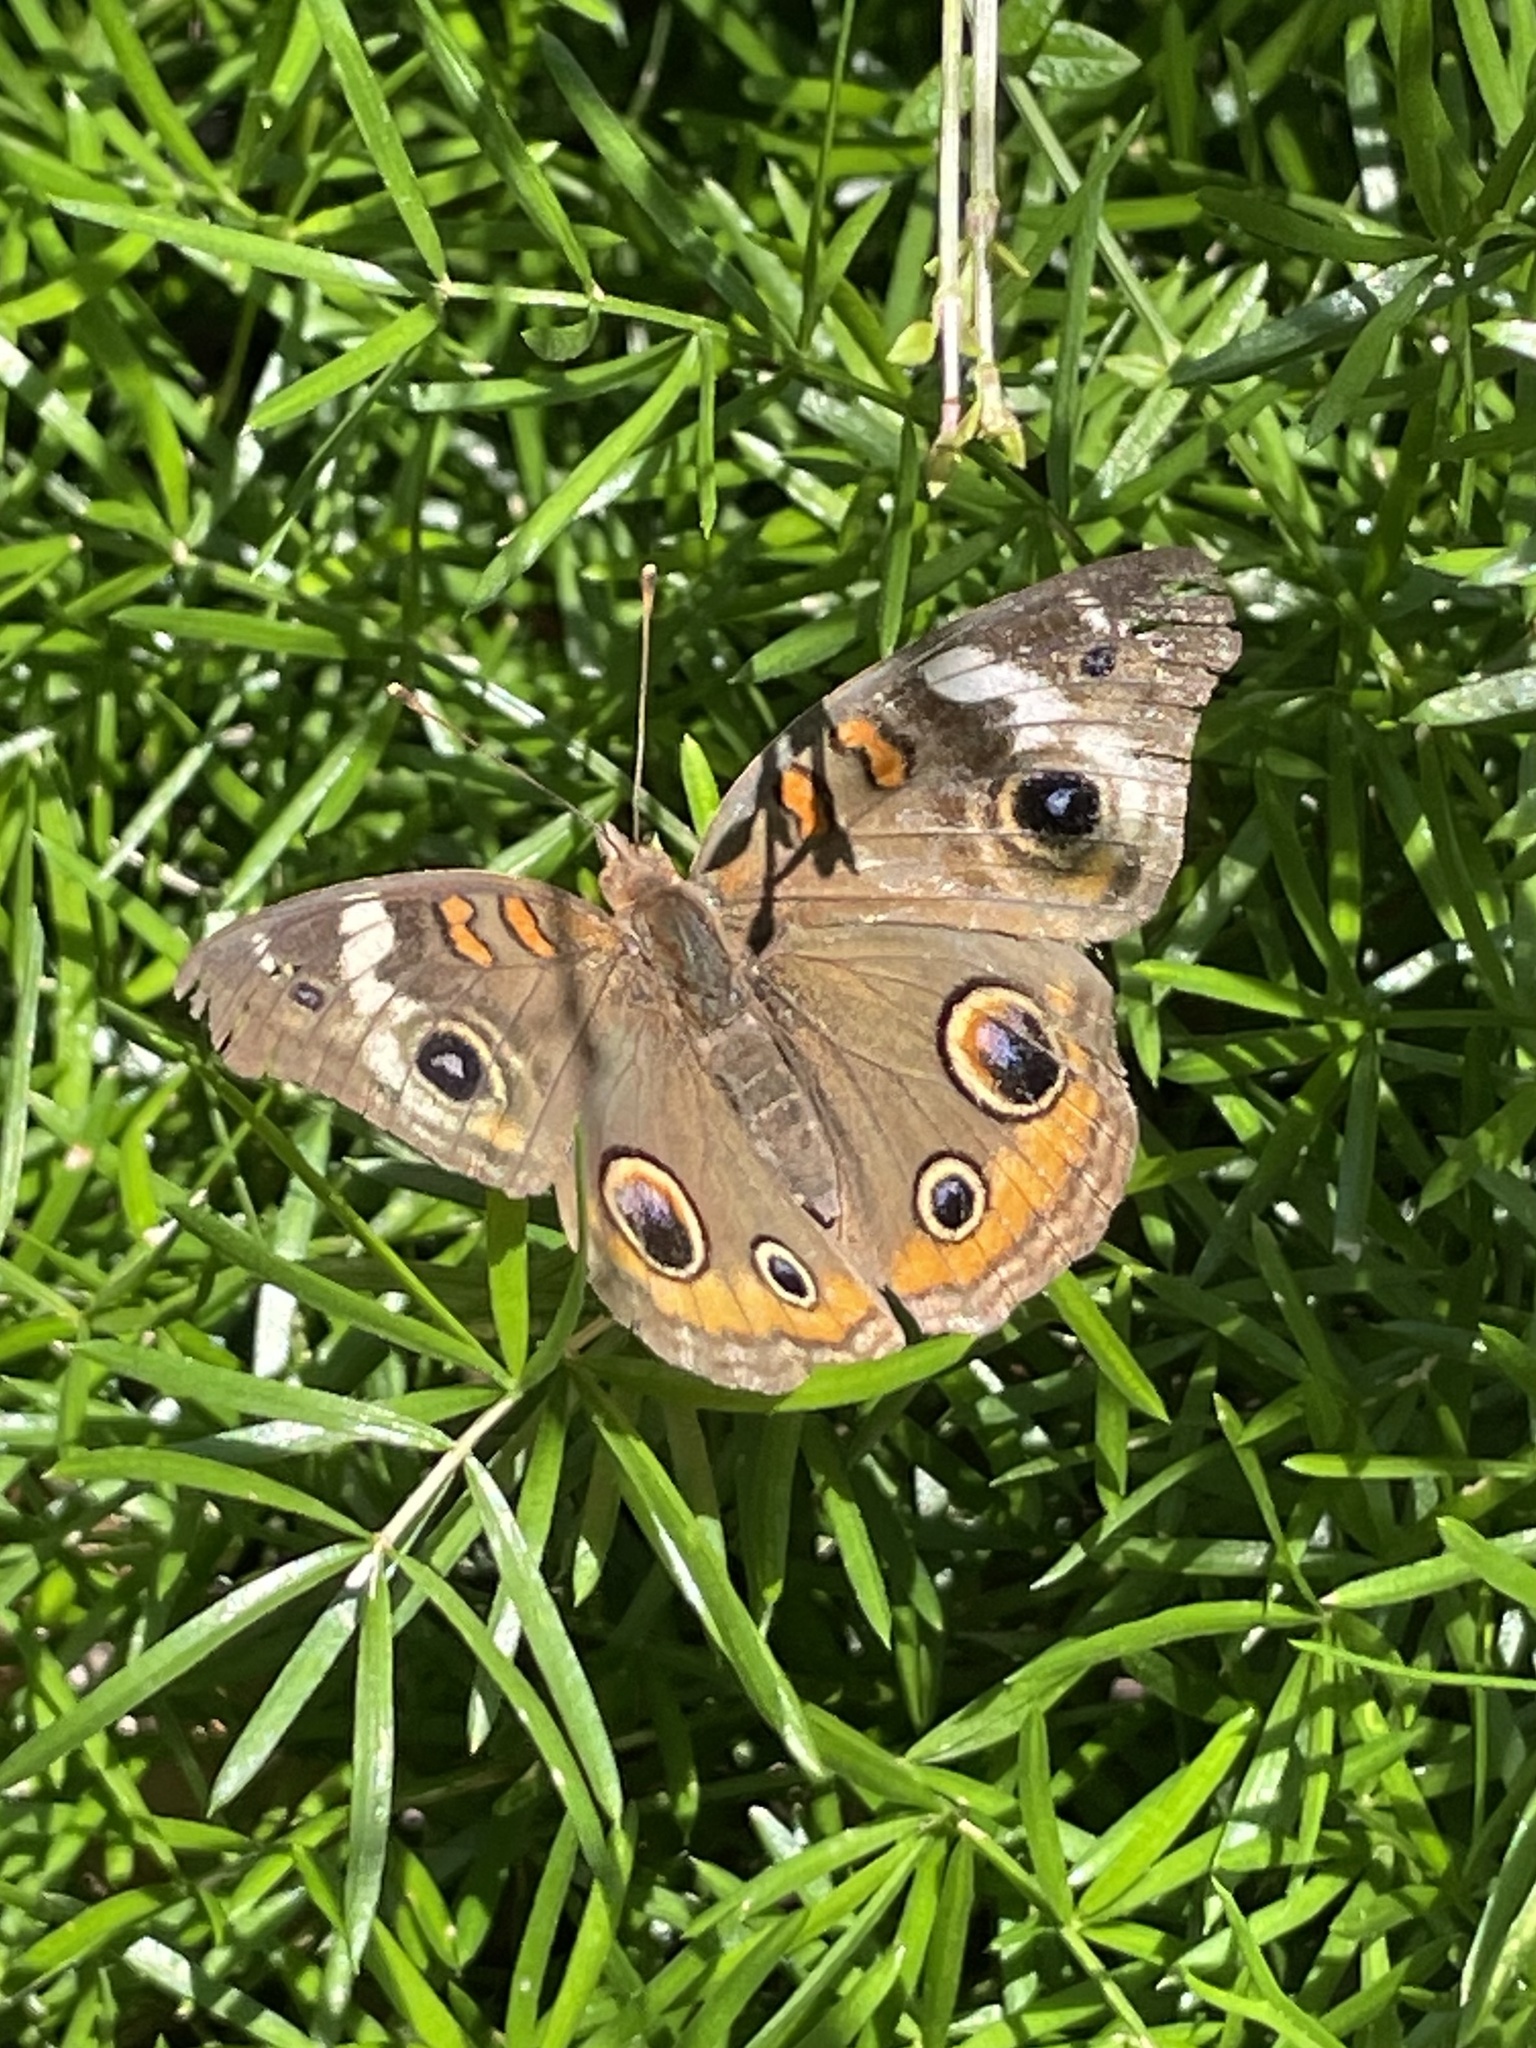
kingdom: Animalia
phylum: Arthropoda
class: Insecta
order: Lepidoptera
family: Nymphalidae
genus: Junonia
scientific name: Junonia coenia
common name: Common buckeye
